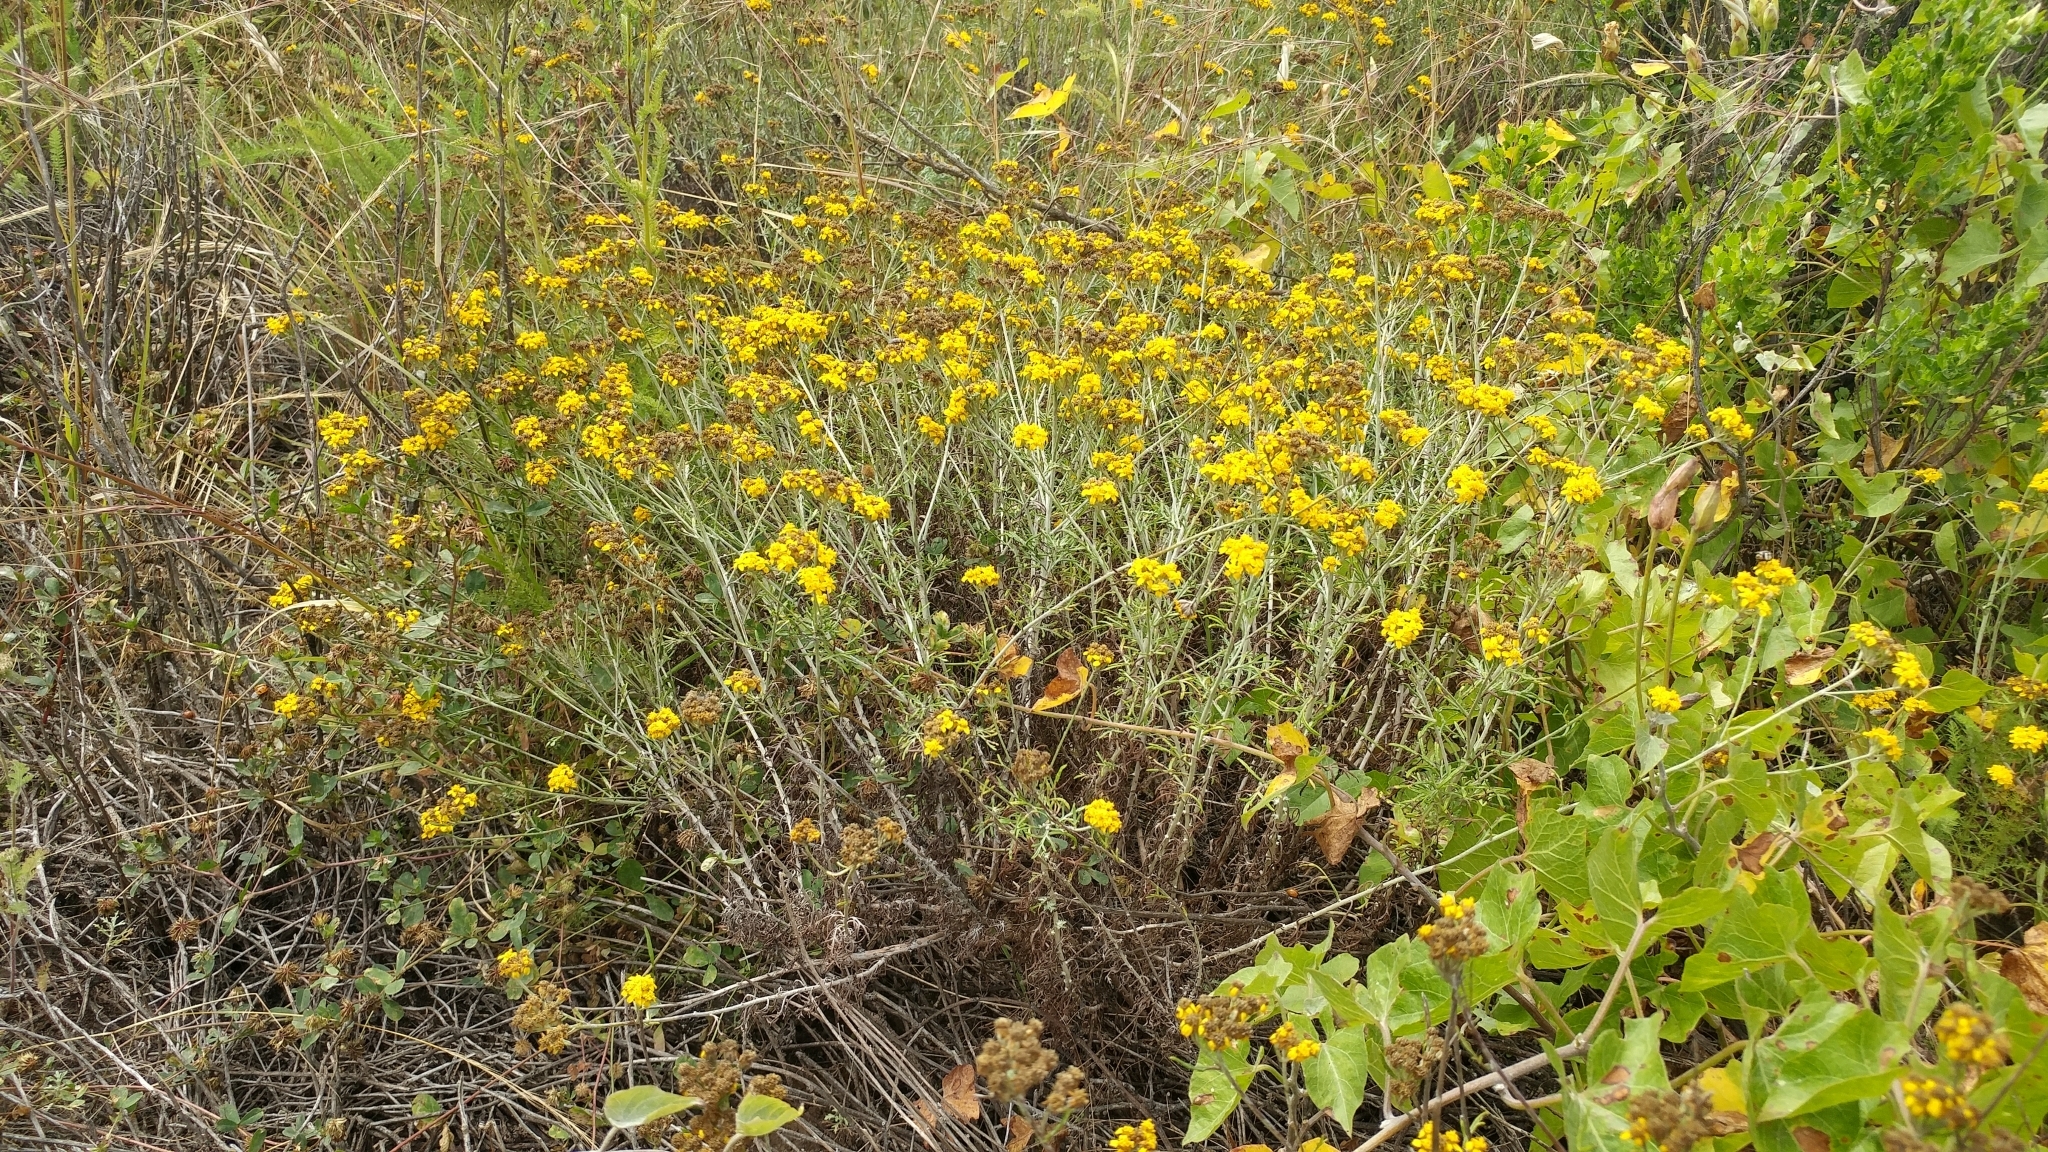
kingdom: Plantae
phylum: Tracheophyta
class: Magnoliopsida
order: Asterales
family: Asteraceae
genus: Eriophyllum
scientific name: Eriophyllum confertiflorum
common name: Golden-yarrow
